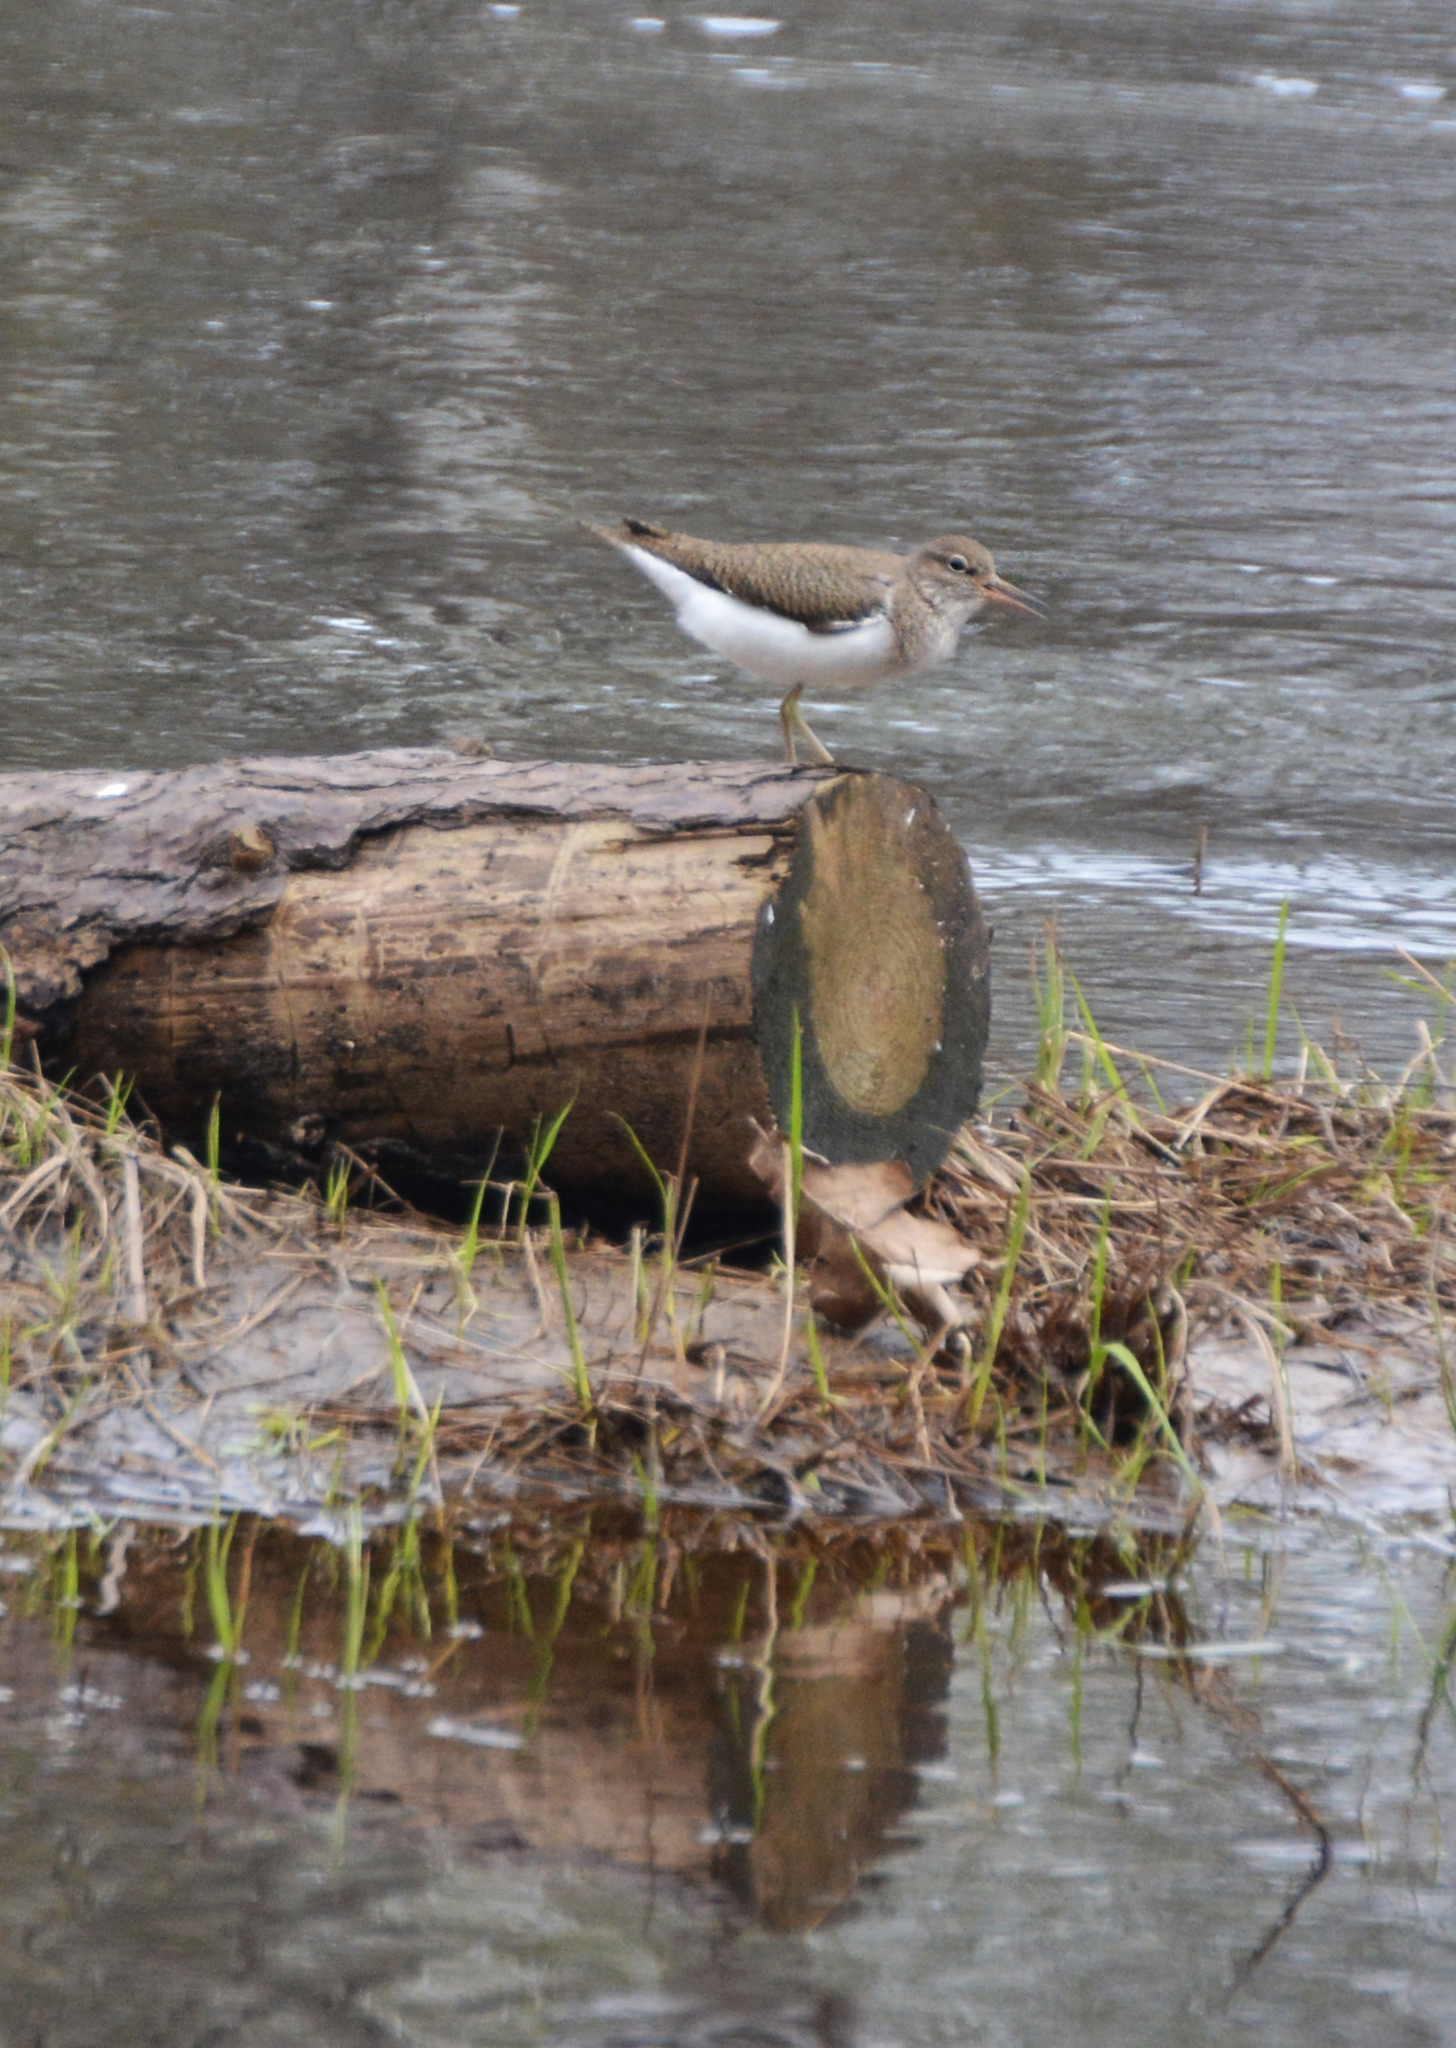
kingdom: Animalia
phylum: Chordata
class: Aves
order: Charadriiformes
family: Scolopacidae
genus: Actitis
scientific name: Actitis hypoleucos
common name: Common sandpiper
